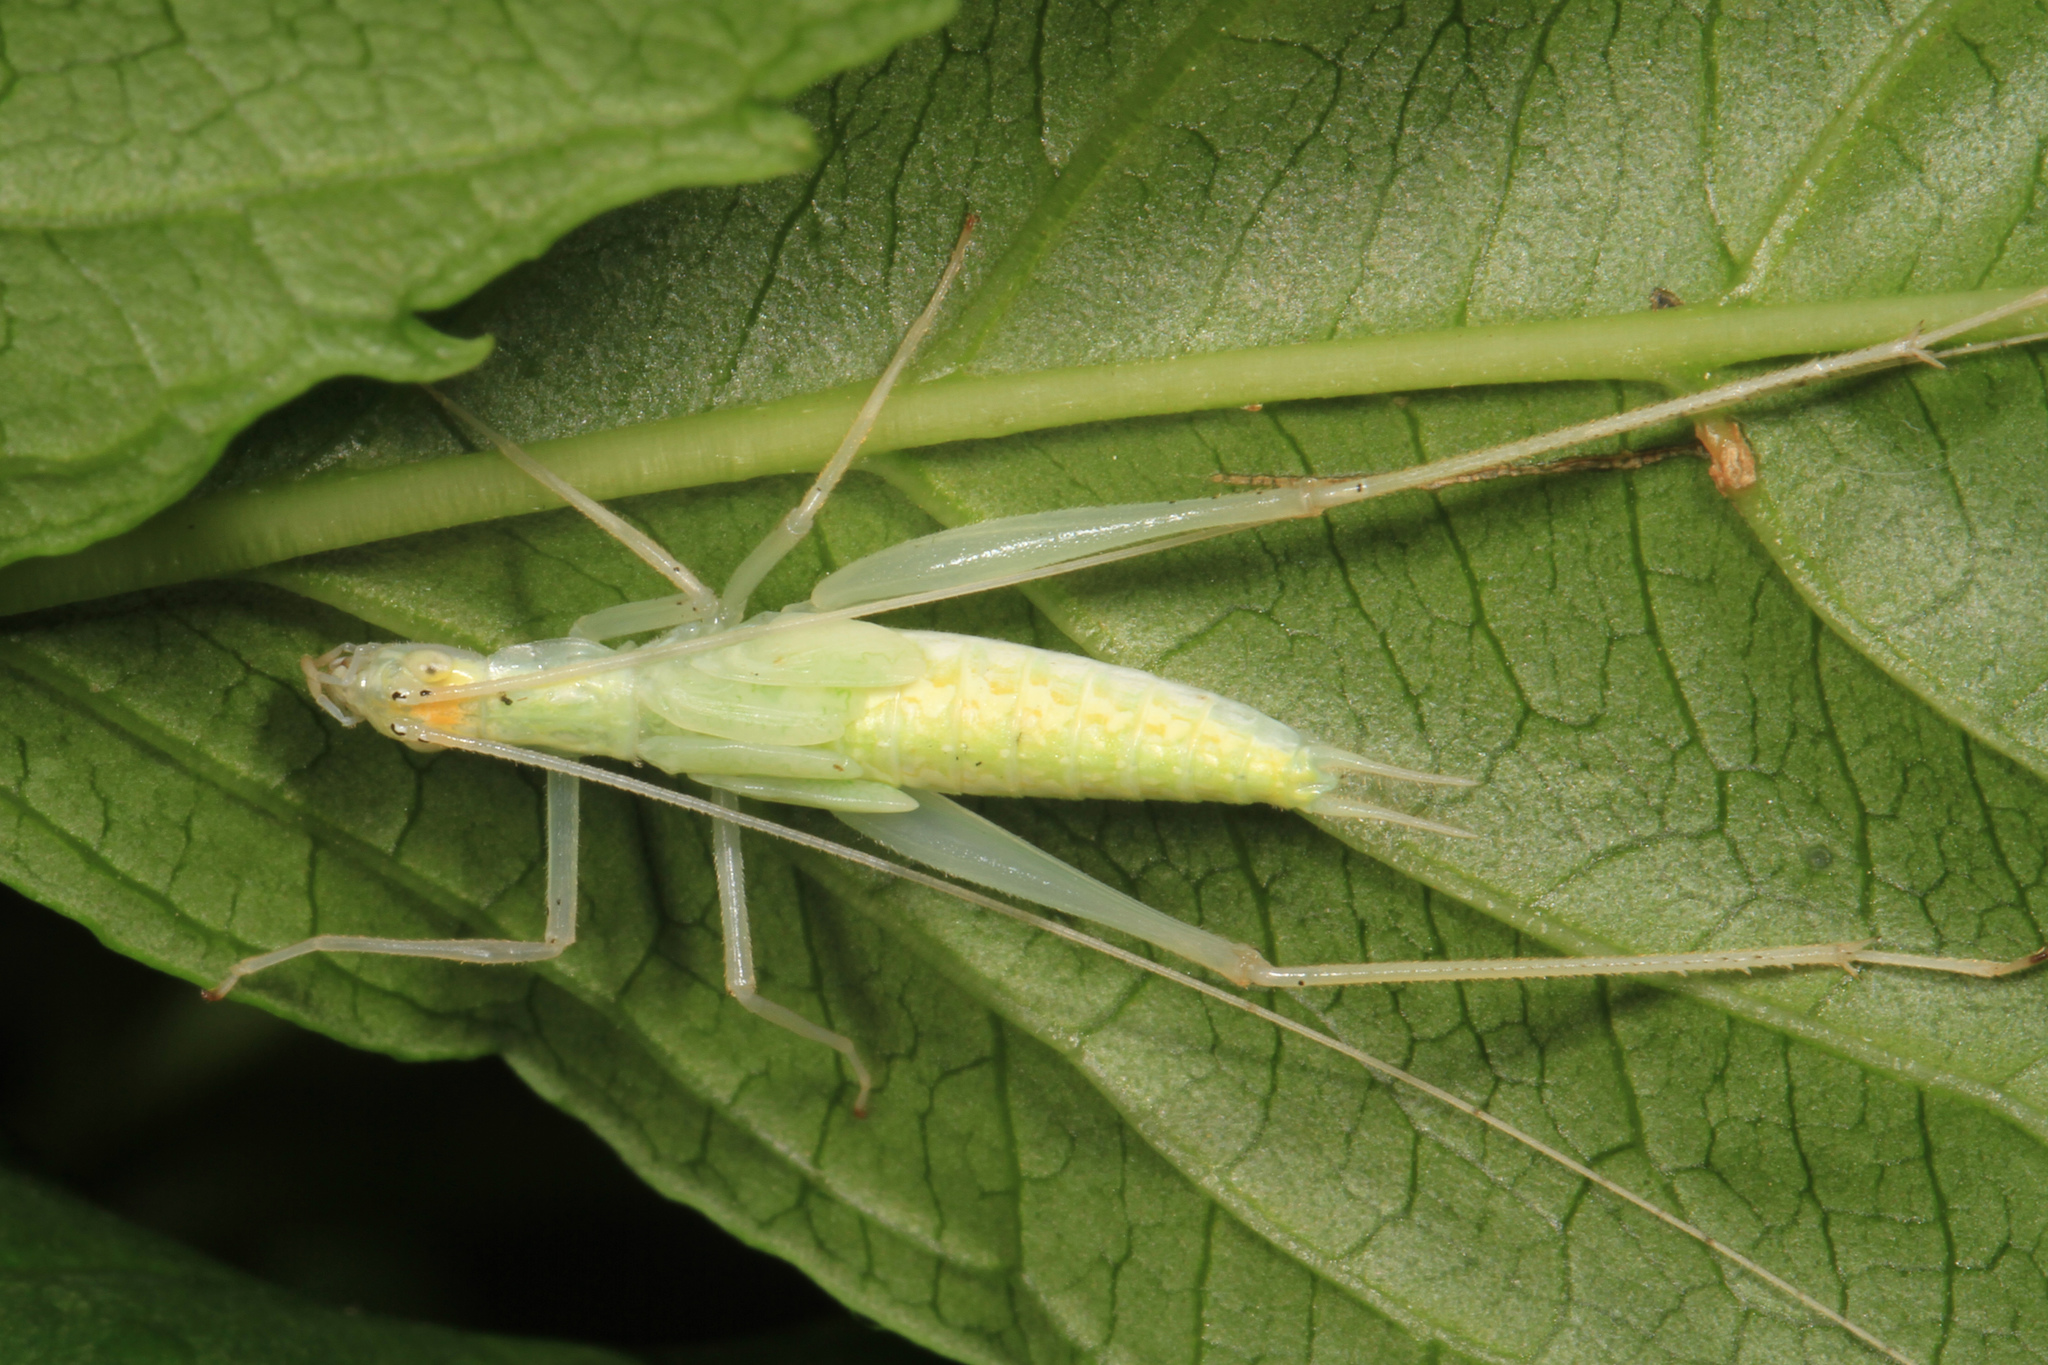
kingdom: Animalia
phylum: Arthropoda
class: Insecta
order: Orthoptera
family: Gryllidae
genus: Oecanthus
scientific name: Oecanthus niveus
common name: Narrow-winged tree cricket
